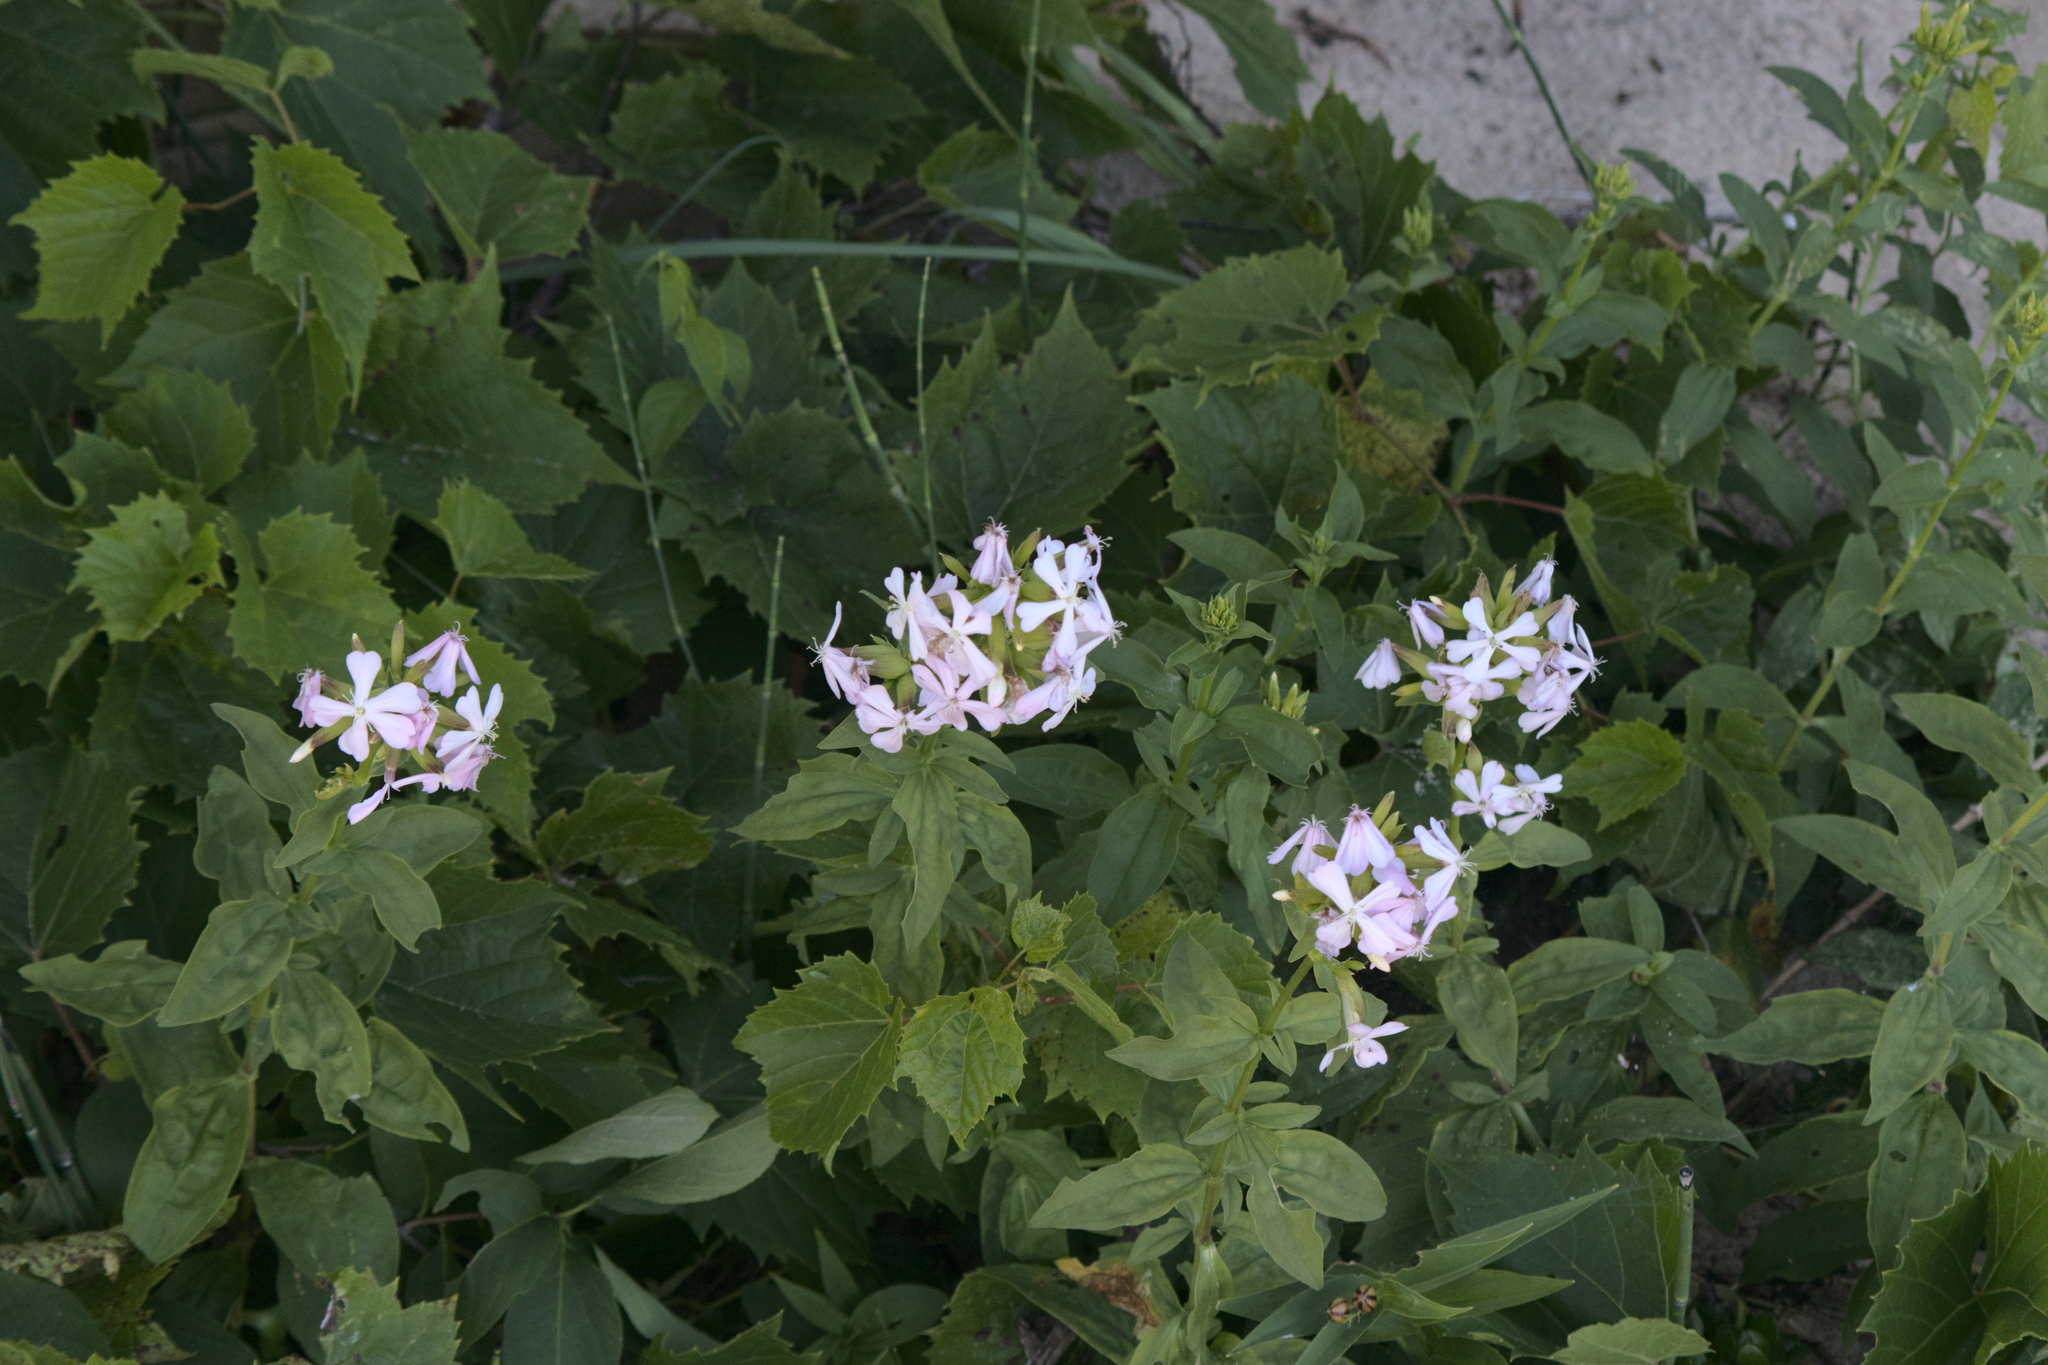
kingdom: Plantae
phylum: Tracheophyta
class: Magnoliopsida
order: Caryophyllales
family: Caryophyllaceae
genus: Saponaria
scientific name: Saponaria officinalis
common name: Soapwort
